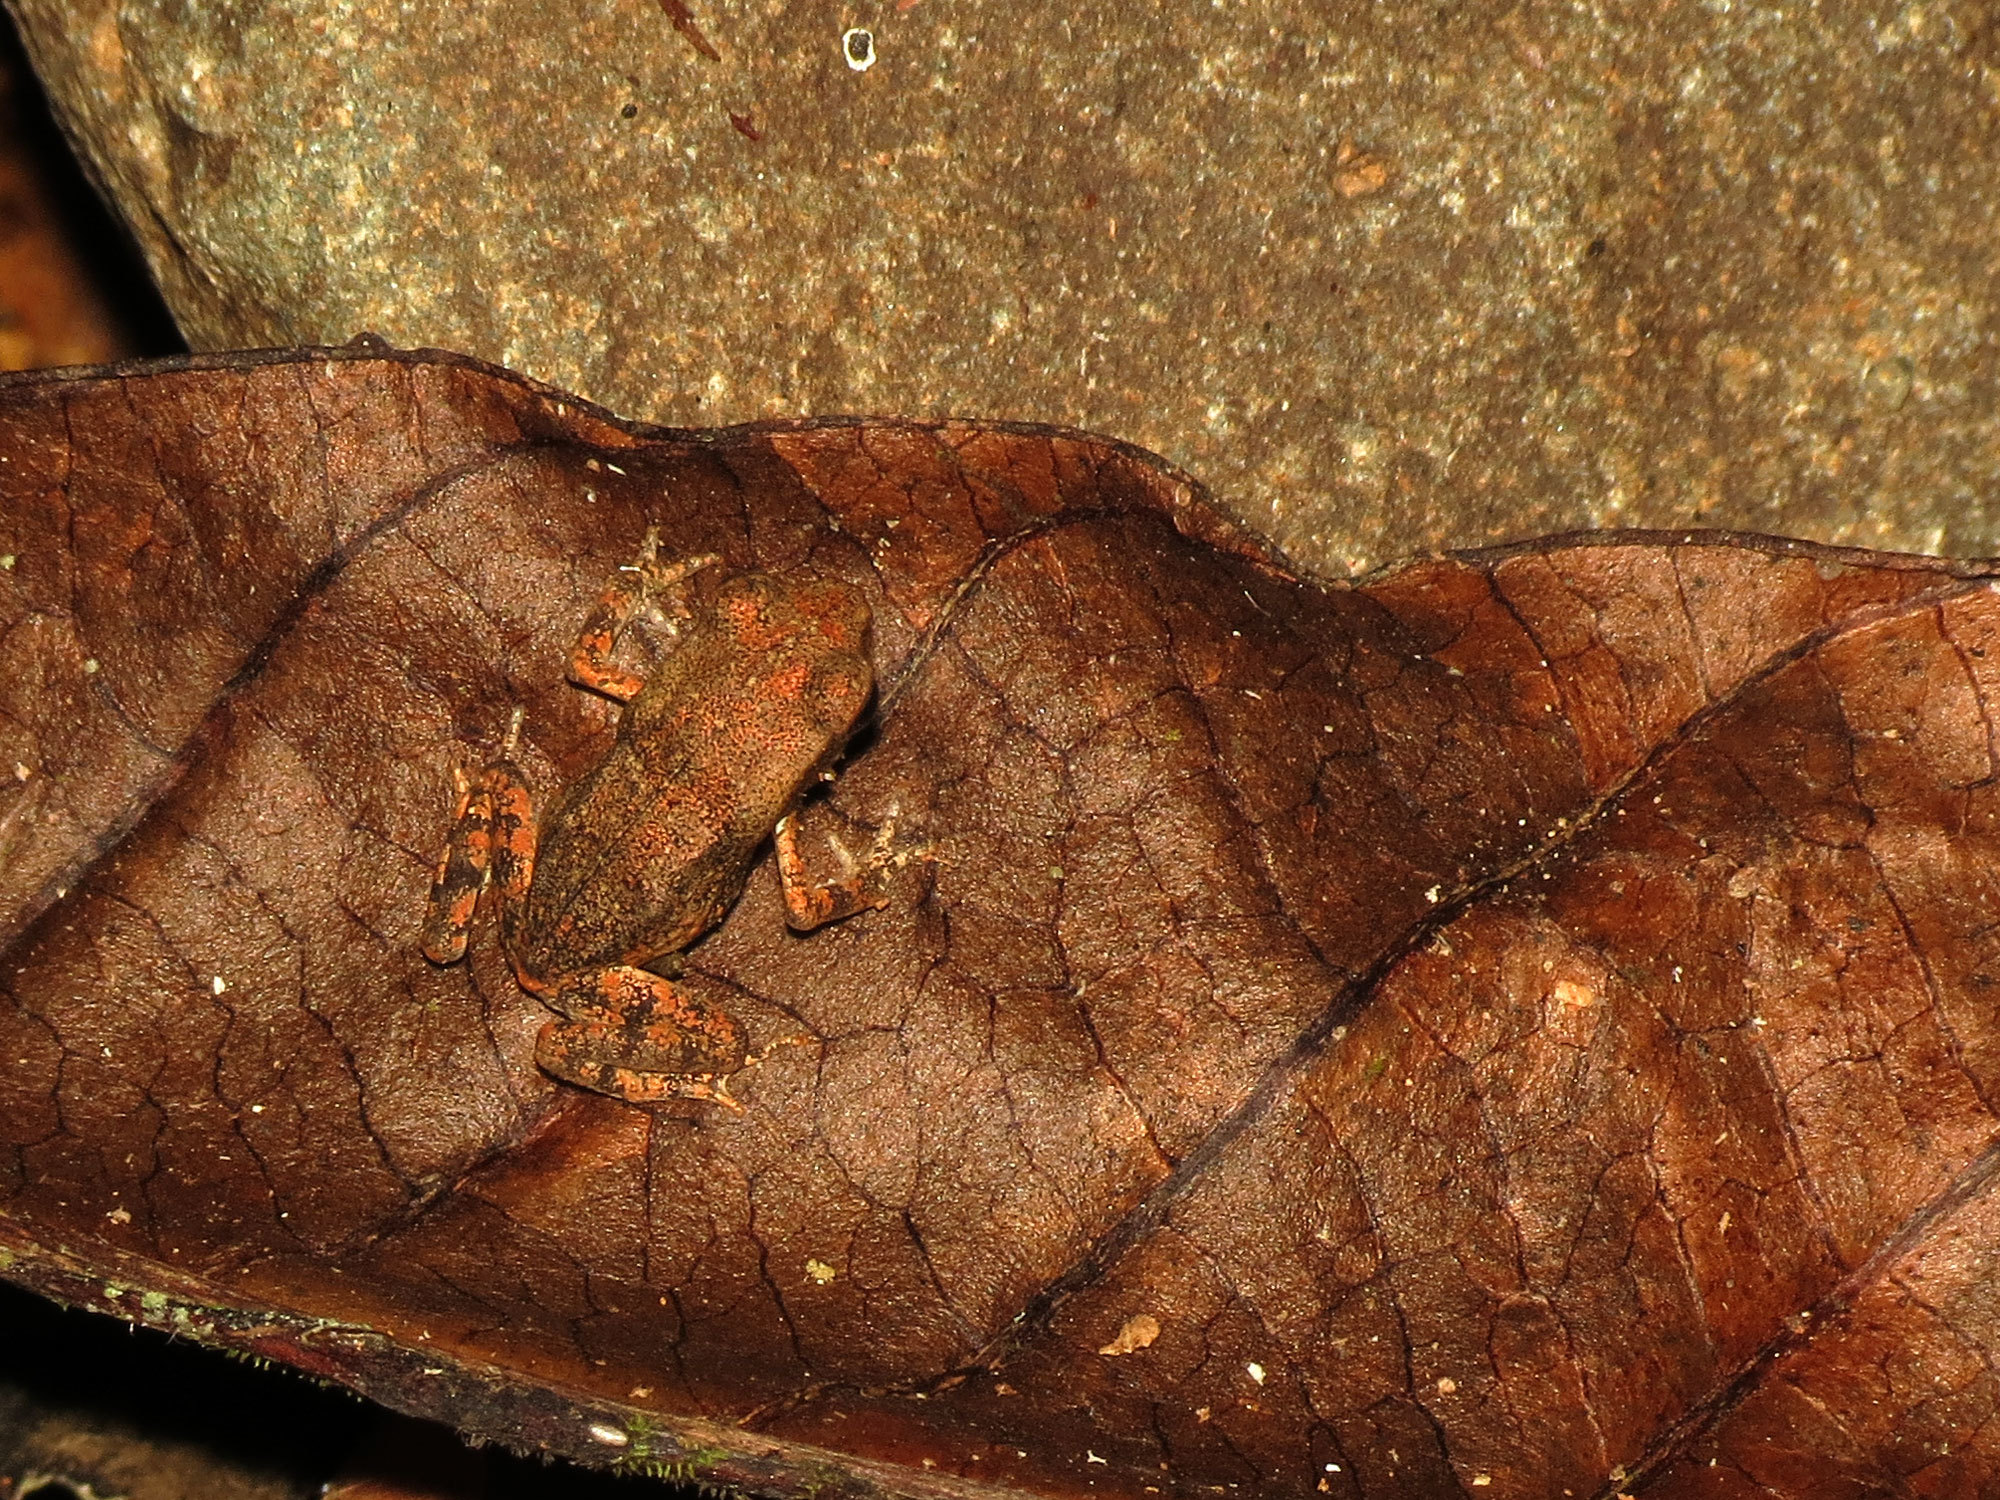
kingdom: Animalia
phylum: Chordata
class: Amphibia
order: Anura
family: Bufonidae
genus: Rhaebo
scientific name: Rhaebo haematiticus
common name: Truando toad
